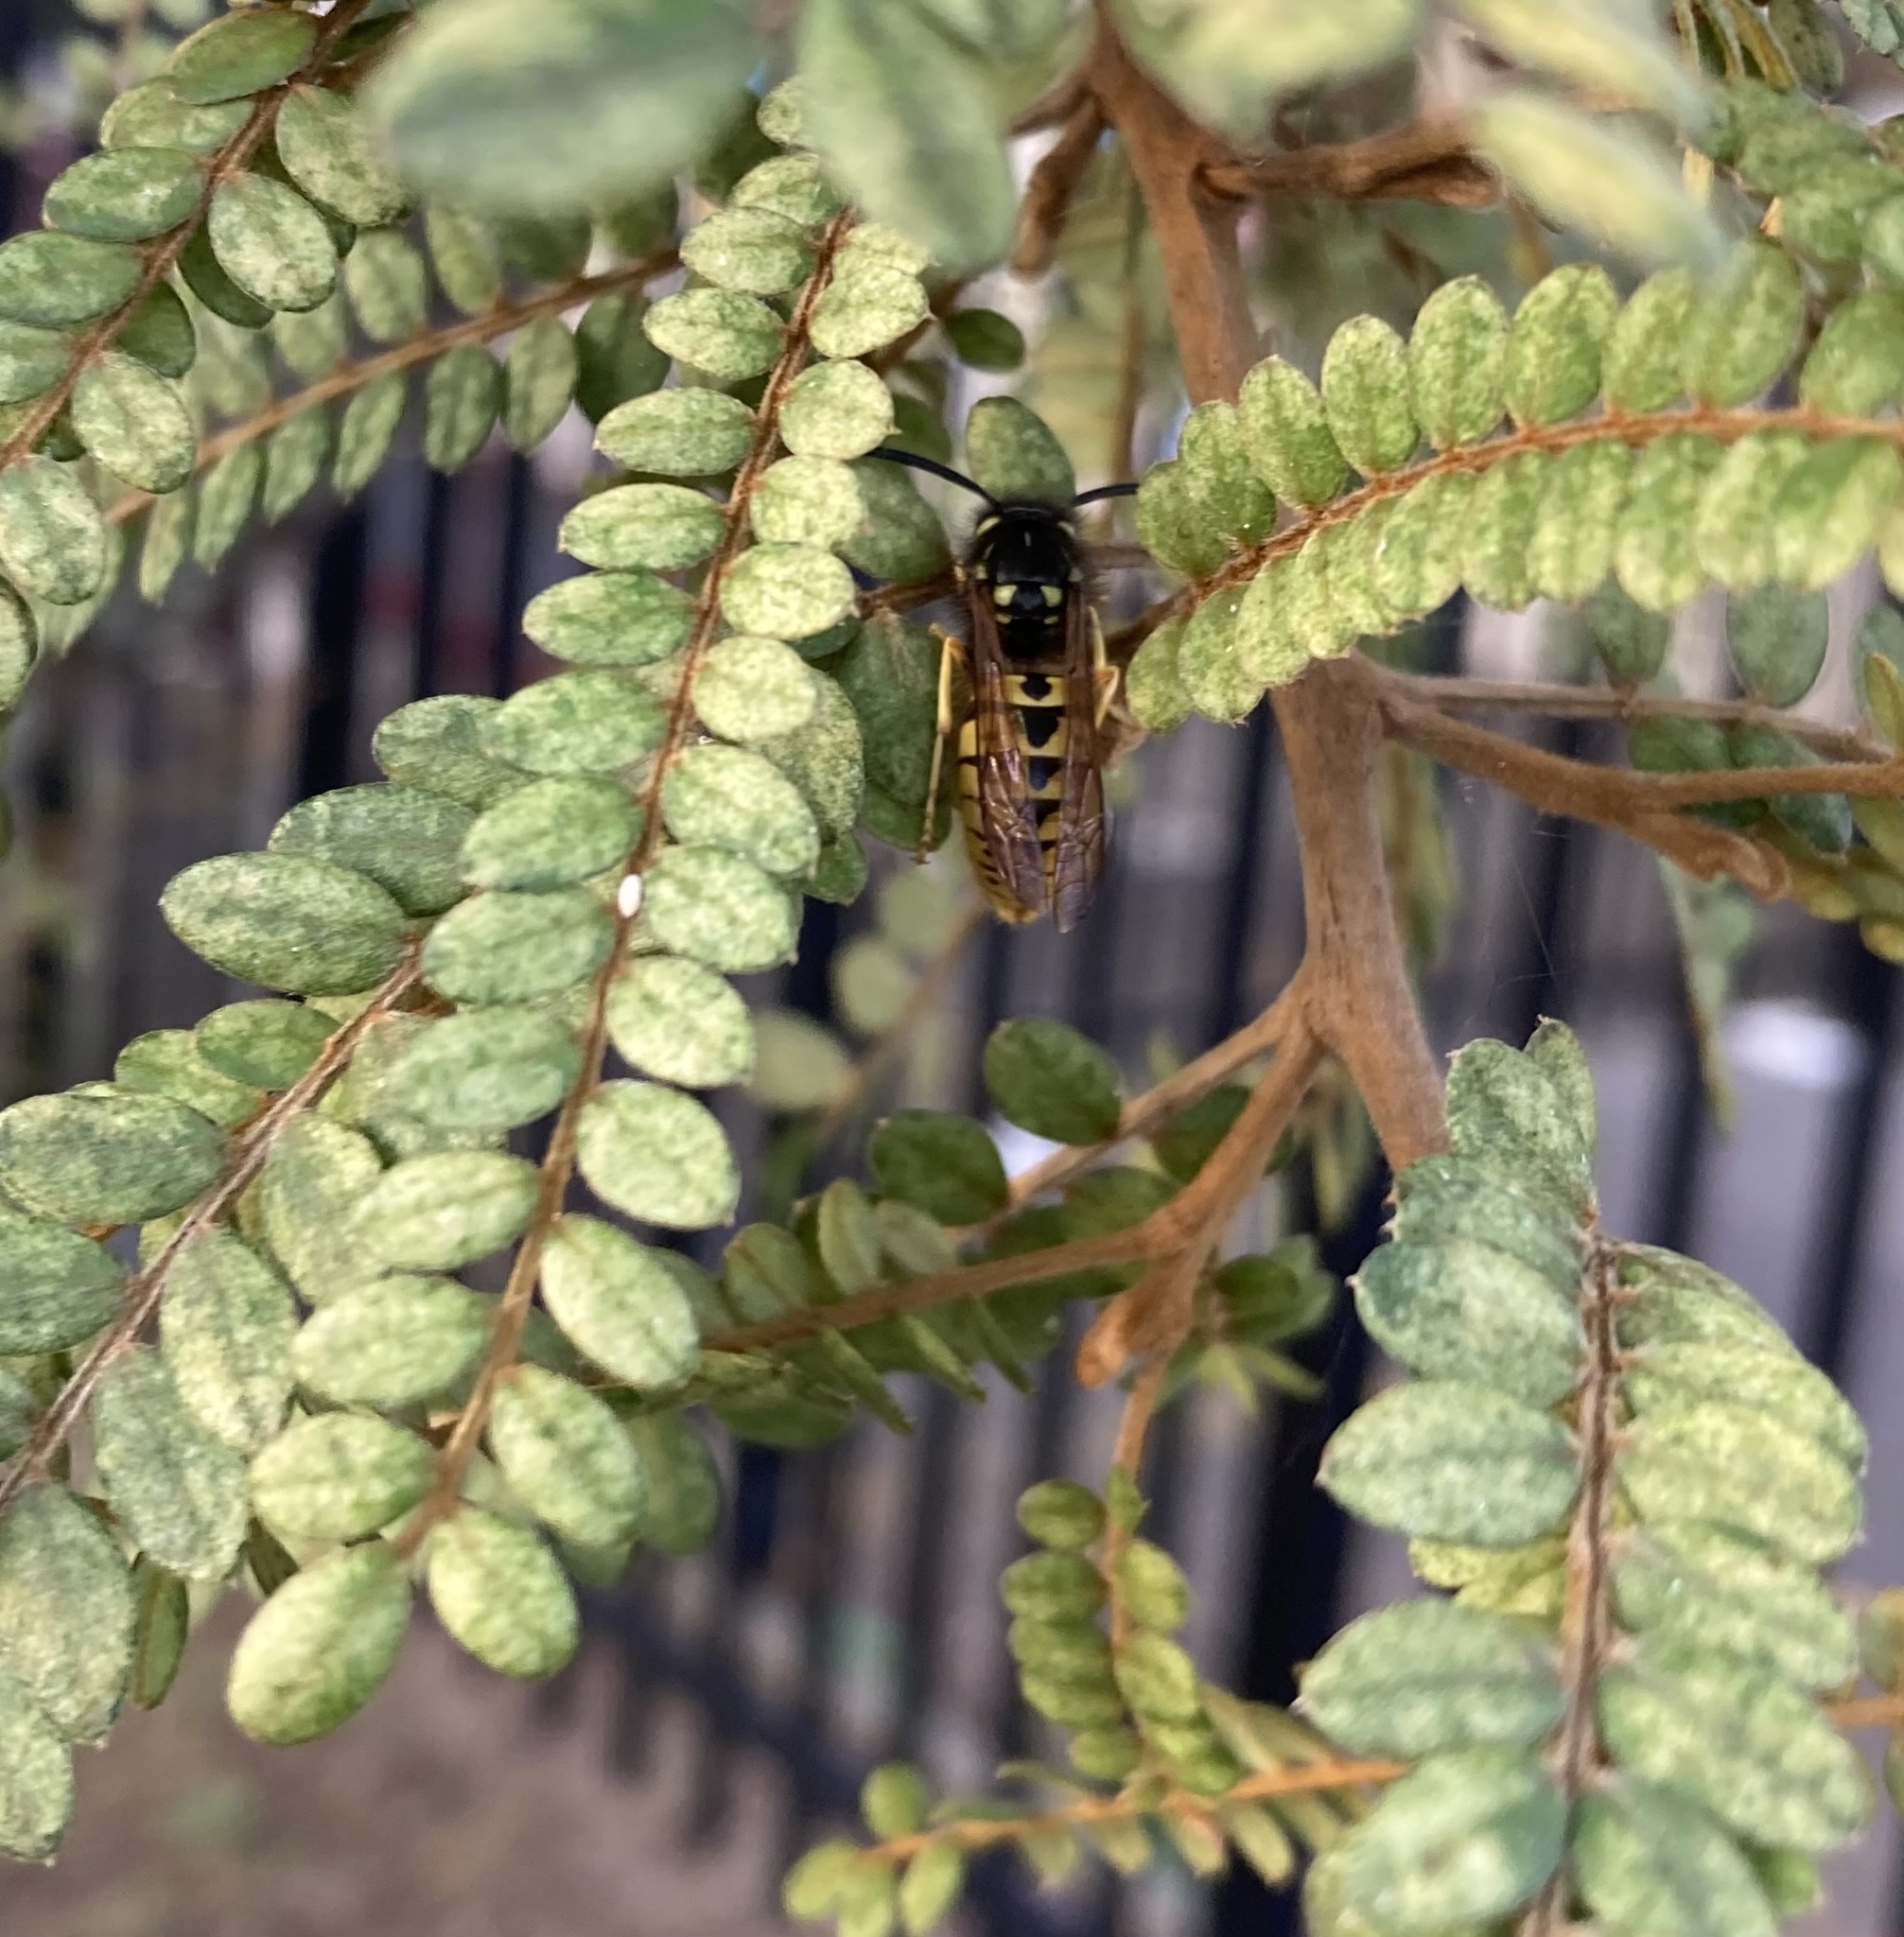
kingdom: Animalia
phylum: Arthropoda
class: Insecta
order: Hymenoptera
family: Vespidae
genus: Vespula
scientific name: Vespula germanica
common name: German wasp
